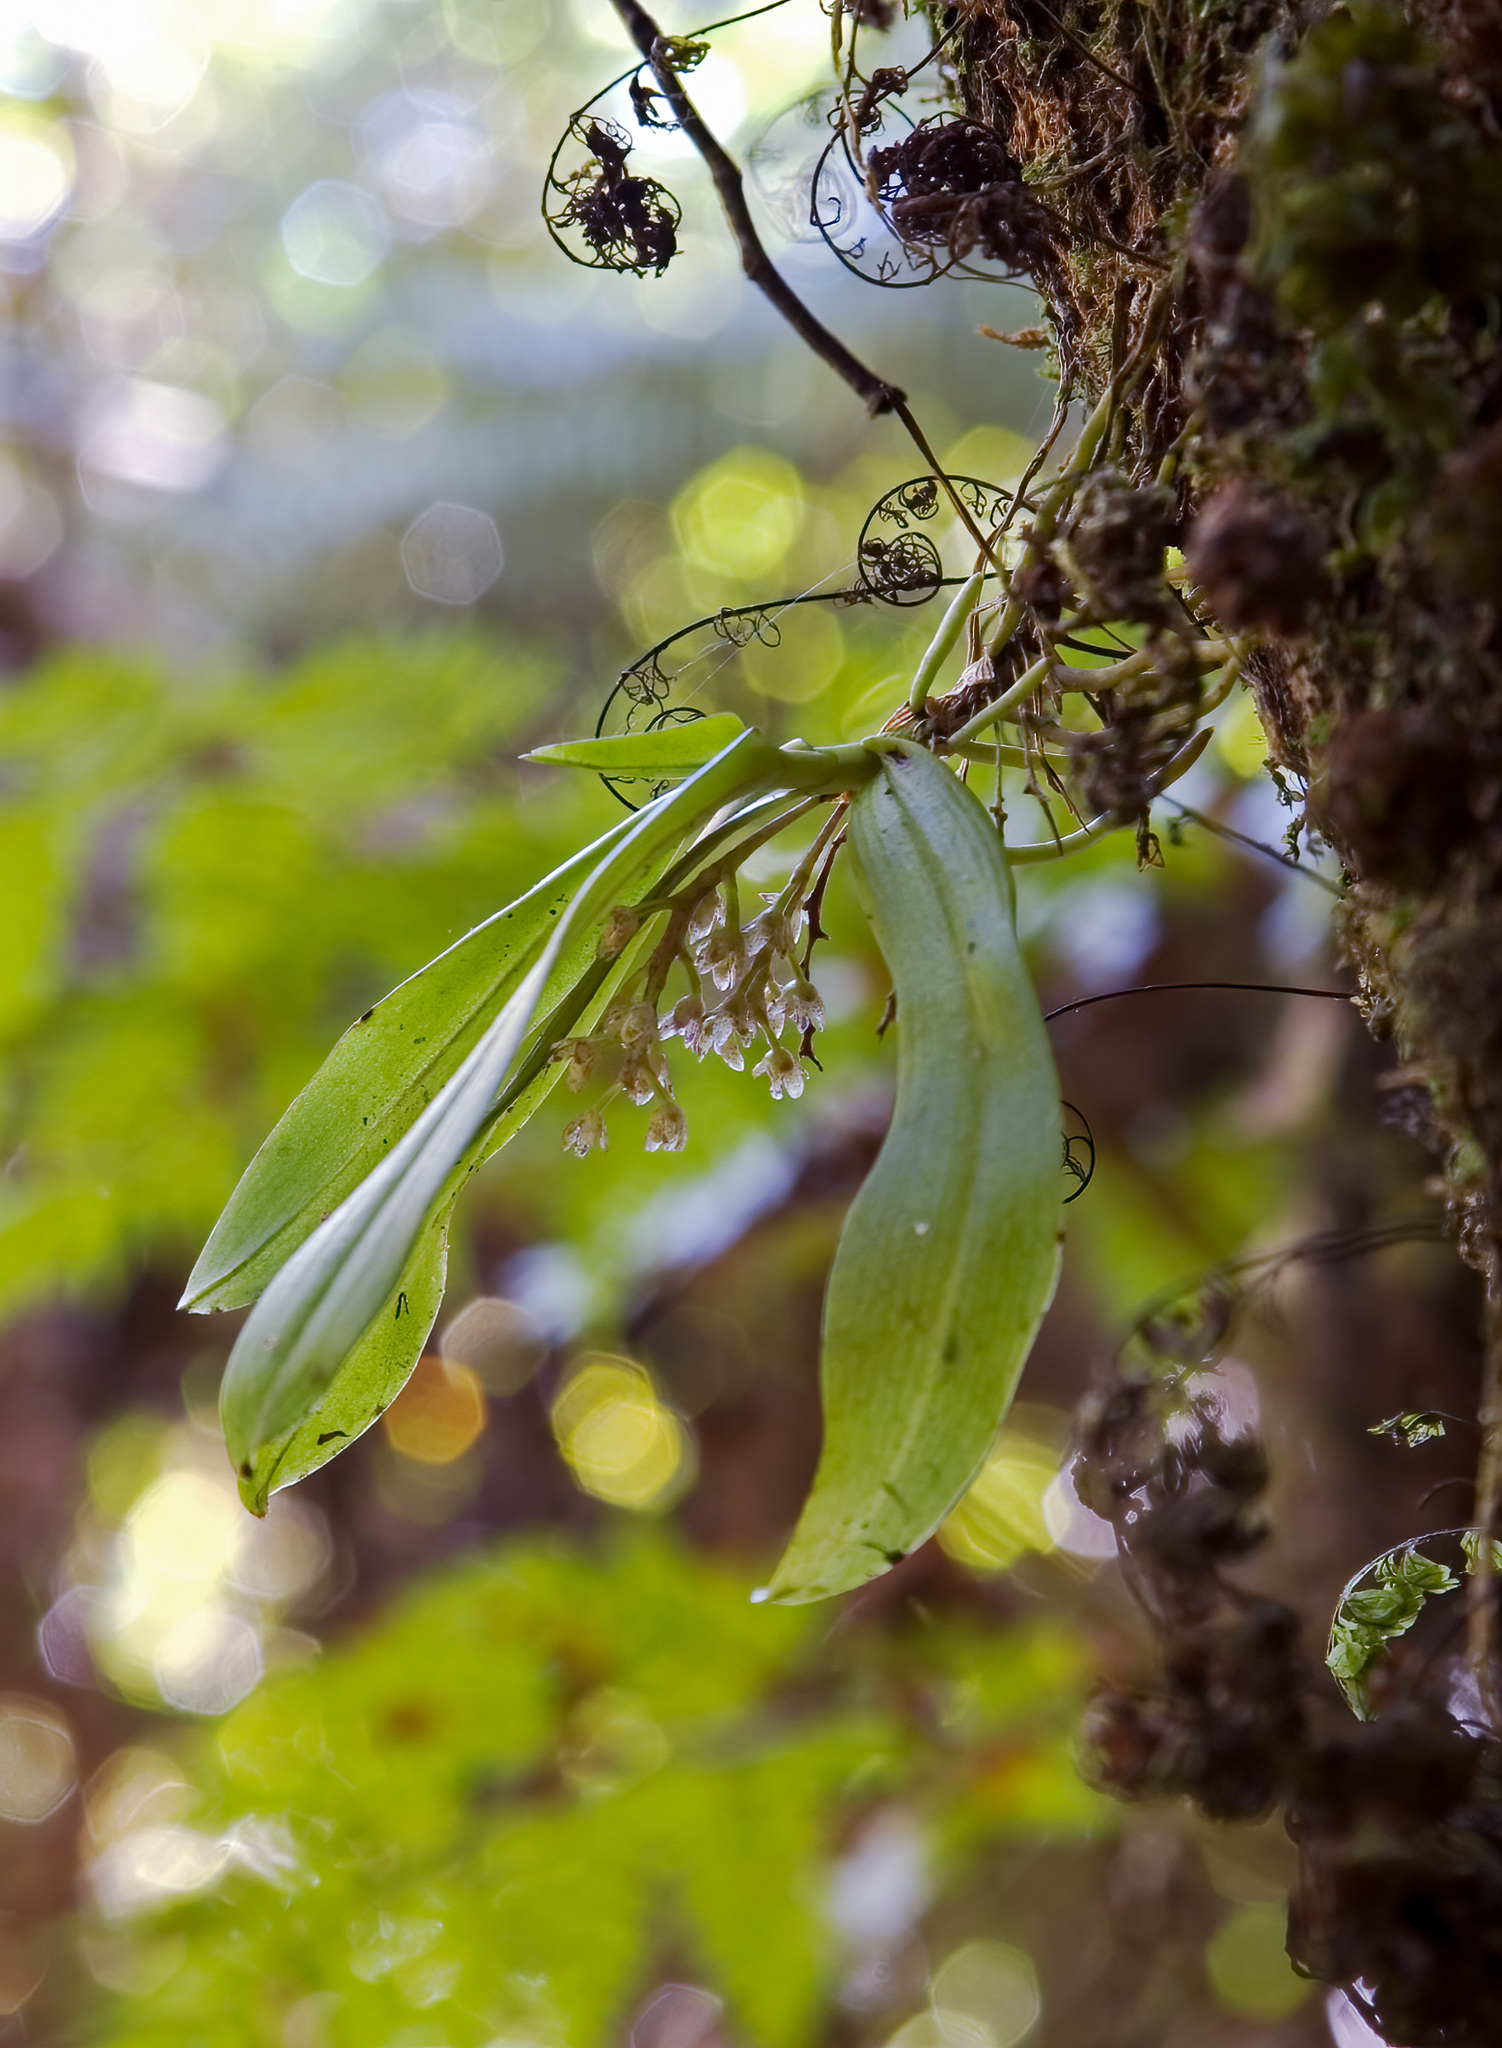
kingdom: Plantae
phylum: Tracheophyta
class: Liliopsida
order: Asparagales
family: Orchidaceae
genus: Drymoanthus
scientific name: Drymoanthus adversus
